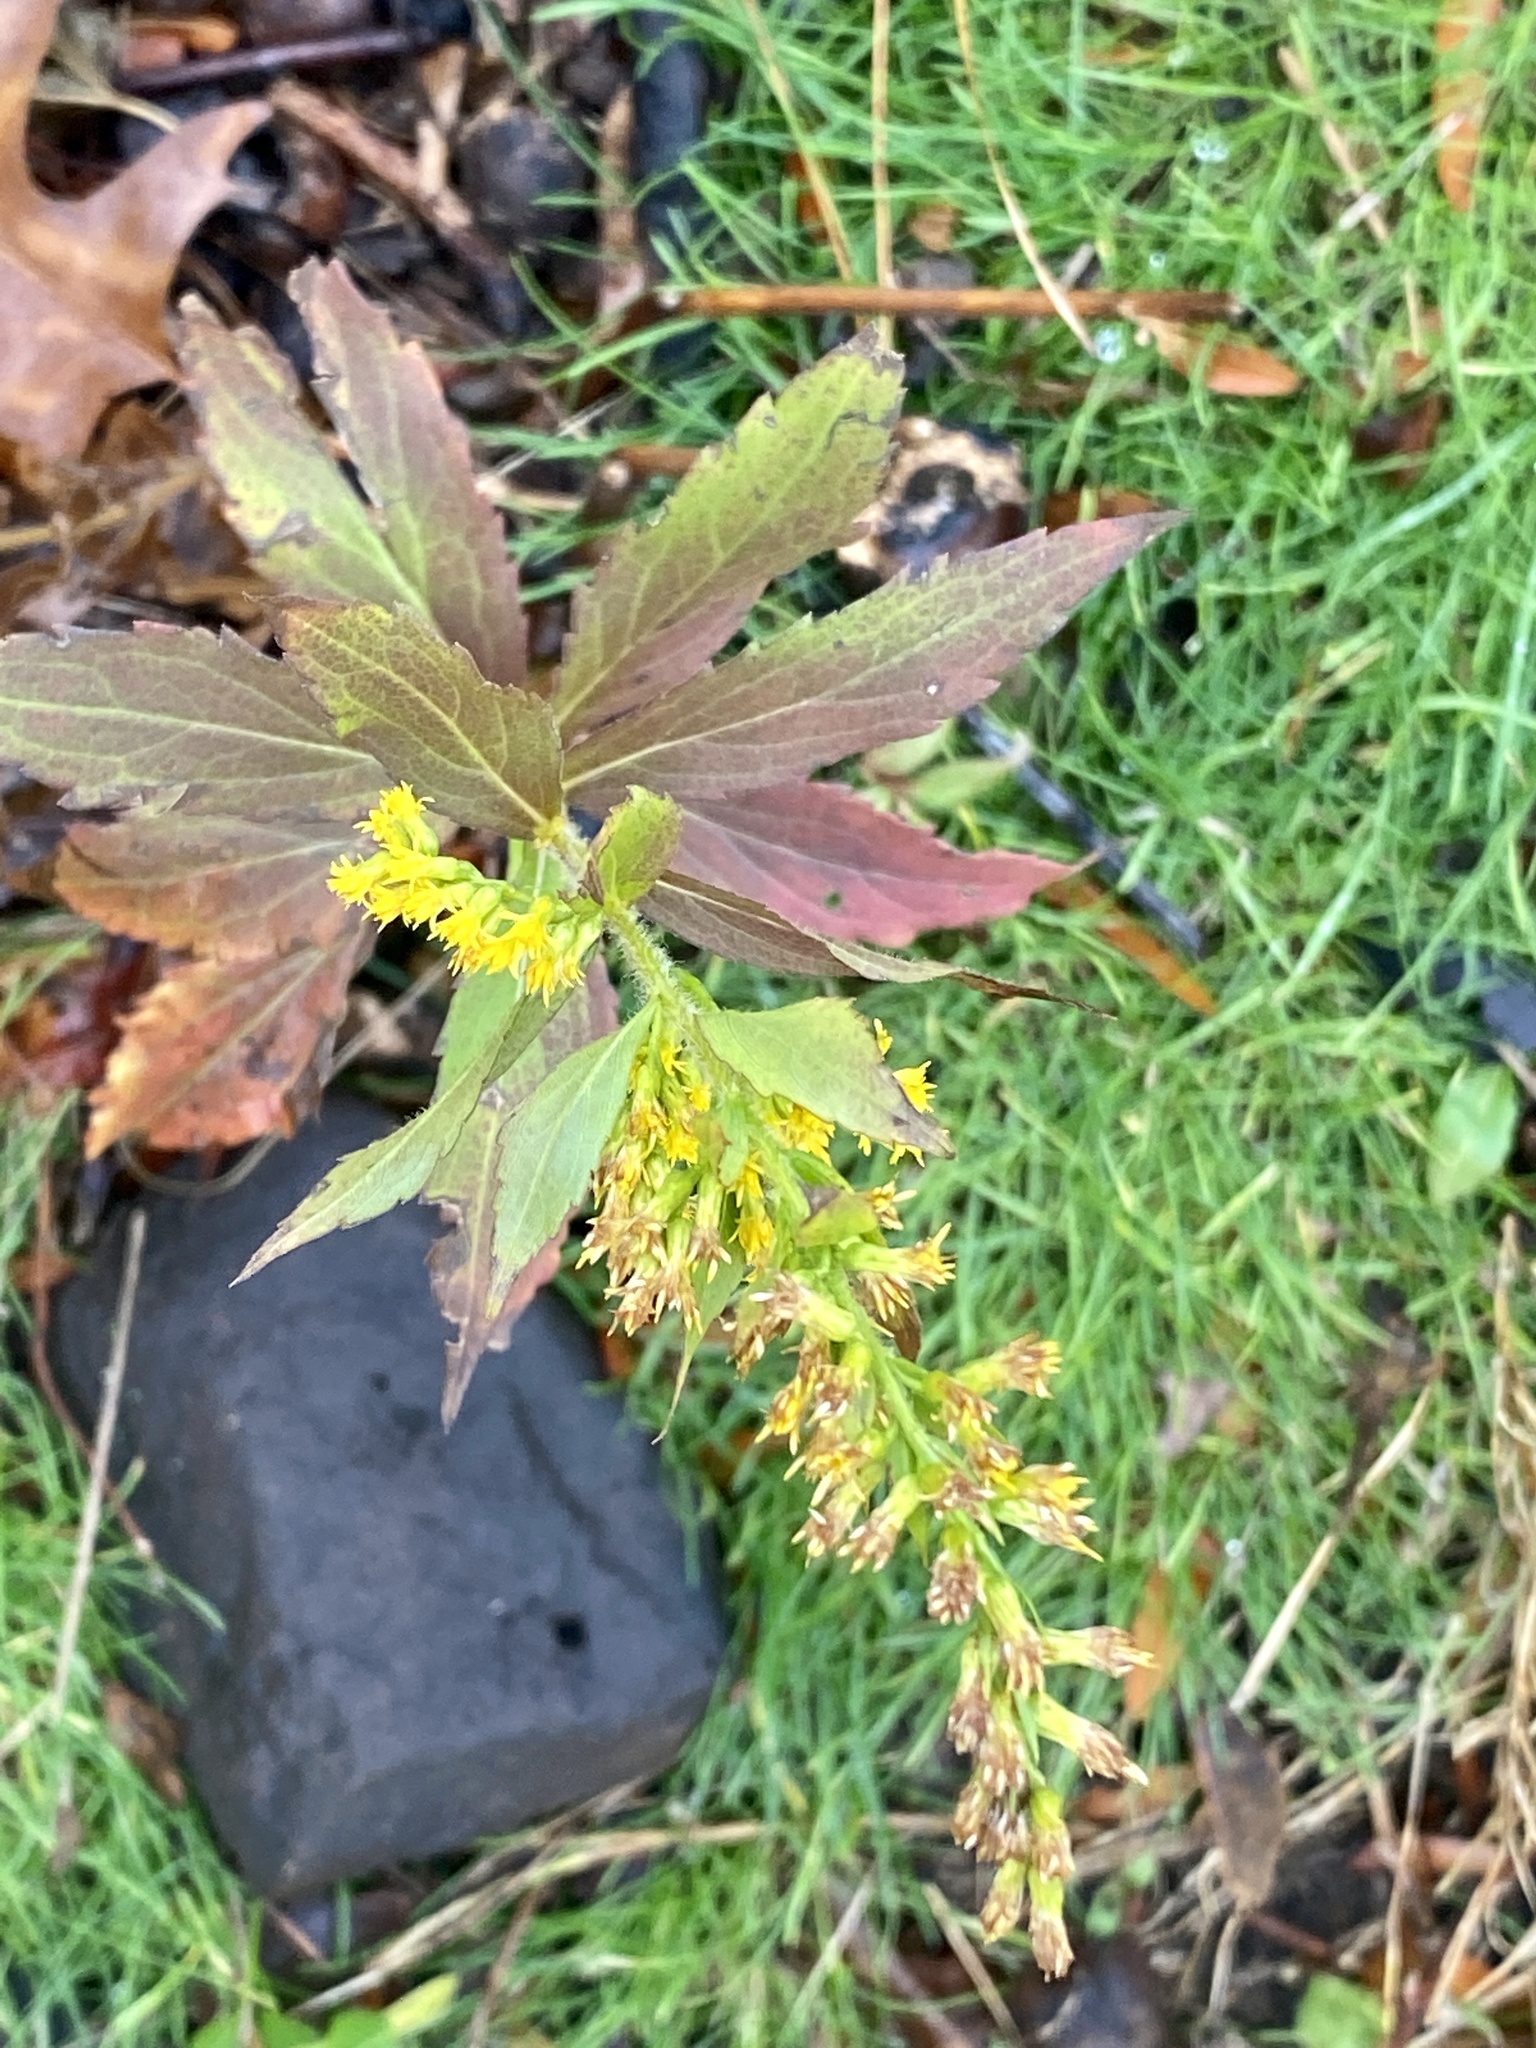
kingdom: Plantae
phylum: Tracheophyta
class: Magnoliopsida
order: Asterales
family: Asteraceae
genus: Solidago
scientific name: Solidago rugosa
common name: Rough-stemmed goldenrod
